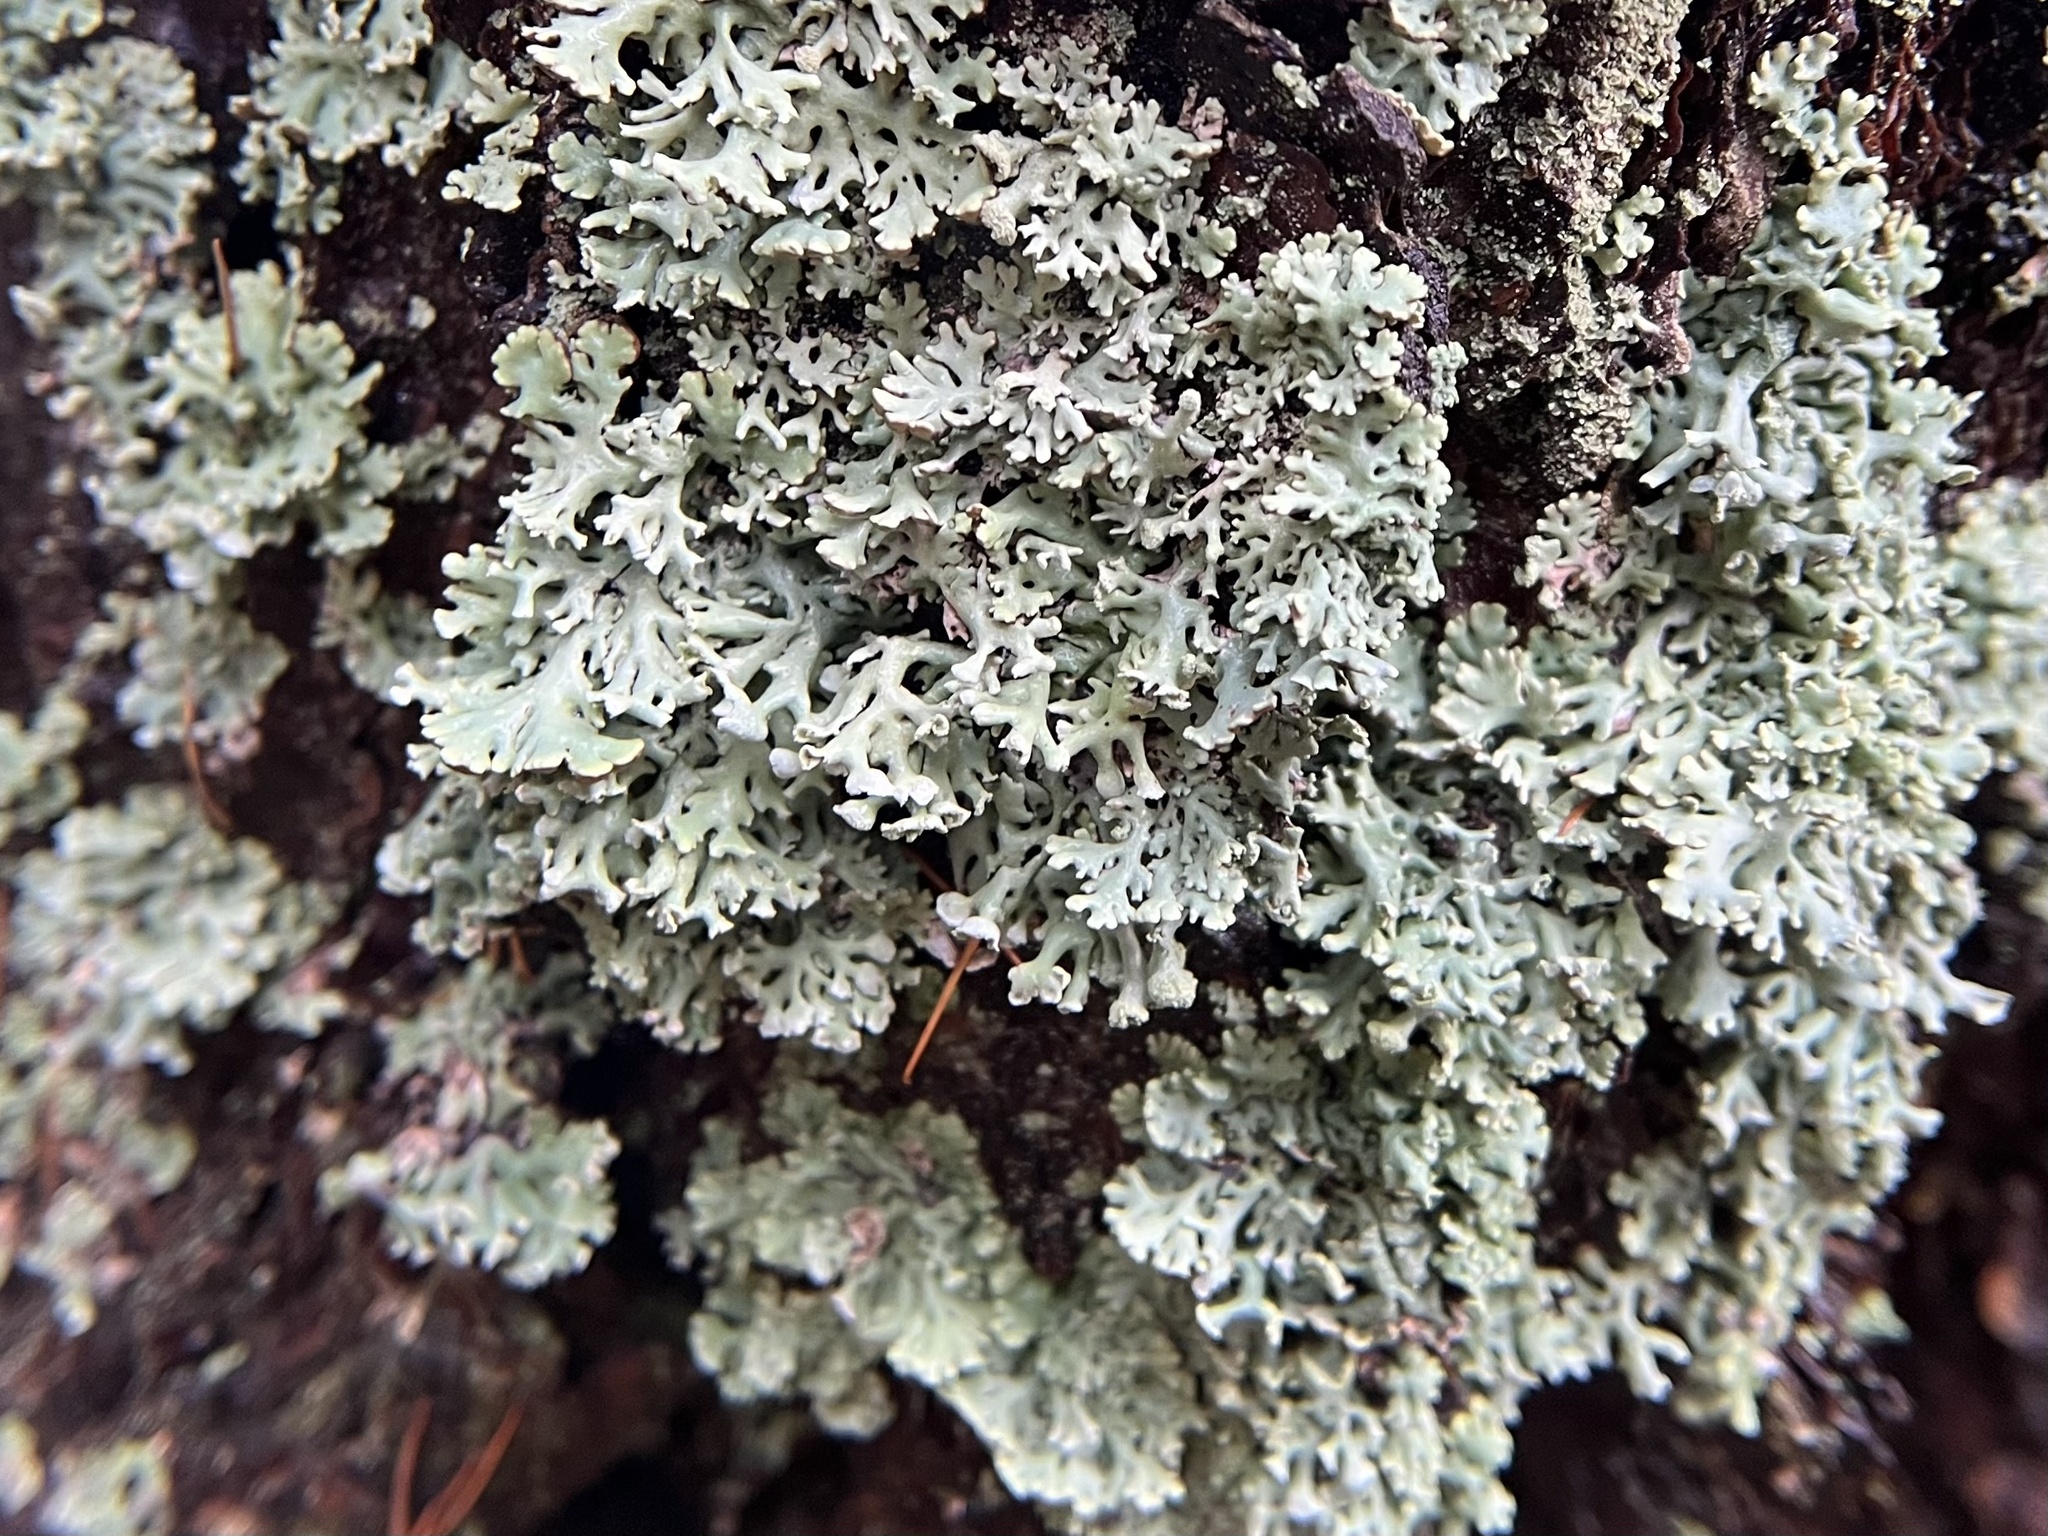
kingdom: Fungi
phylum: Ascomycota
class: Lecanoromycetes
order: Lecanorales
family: Parmeliaceae
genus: Hypogymnia
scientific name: Hypogymnia physodes
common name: Dark crottle
